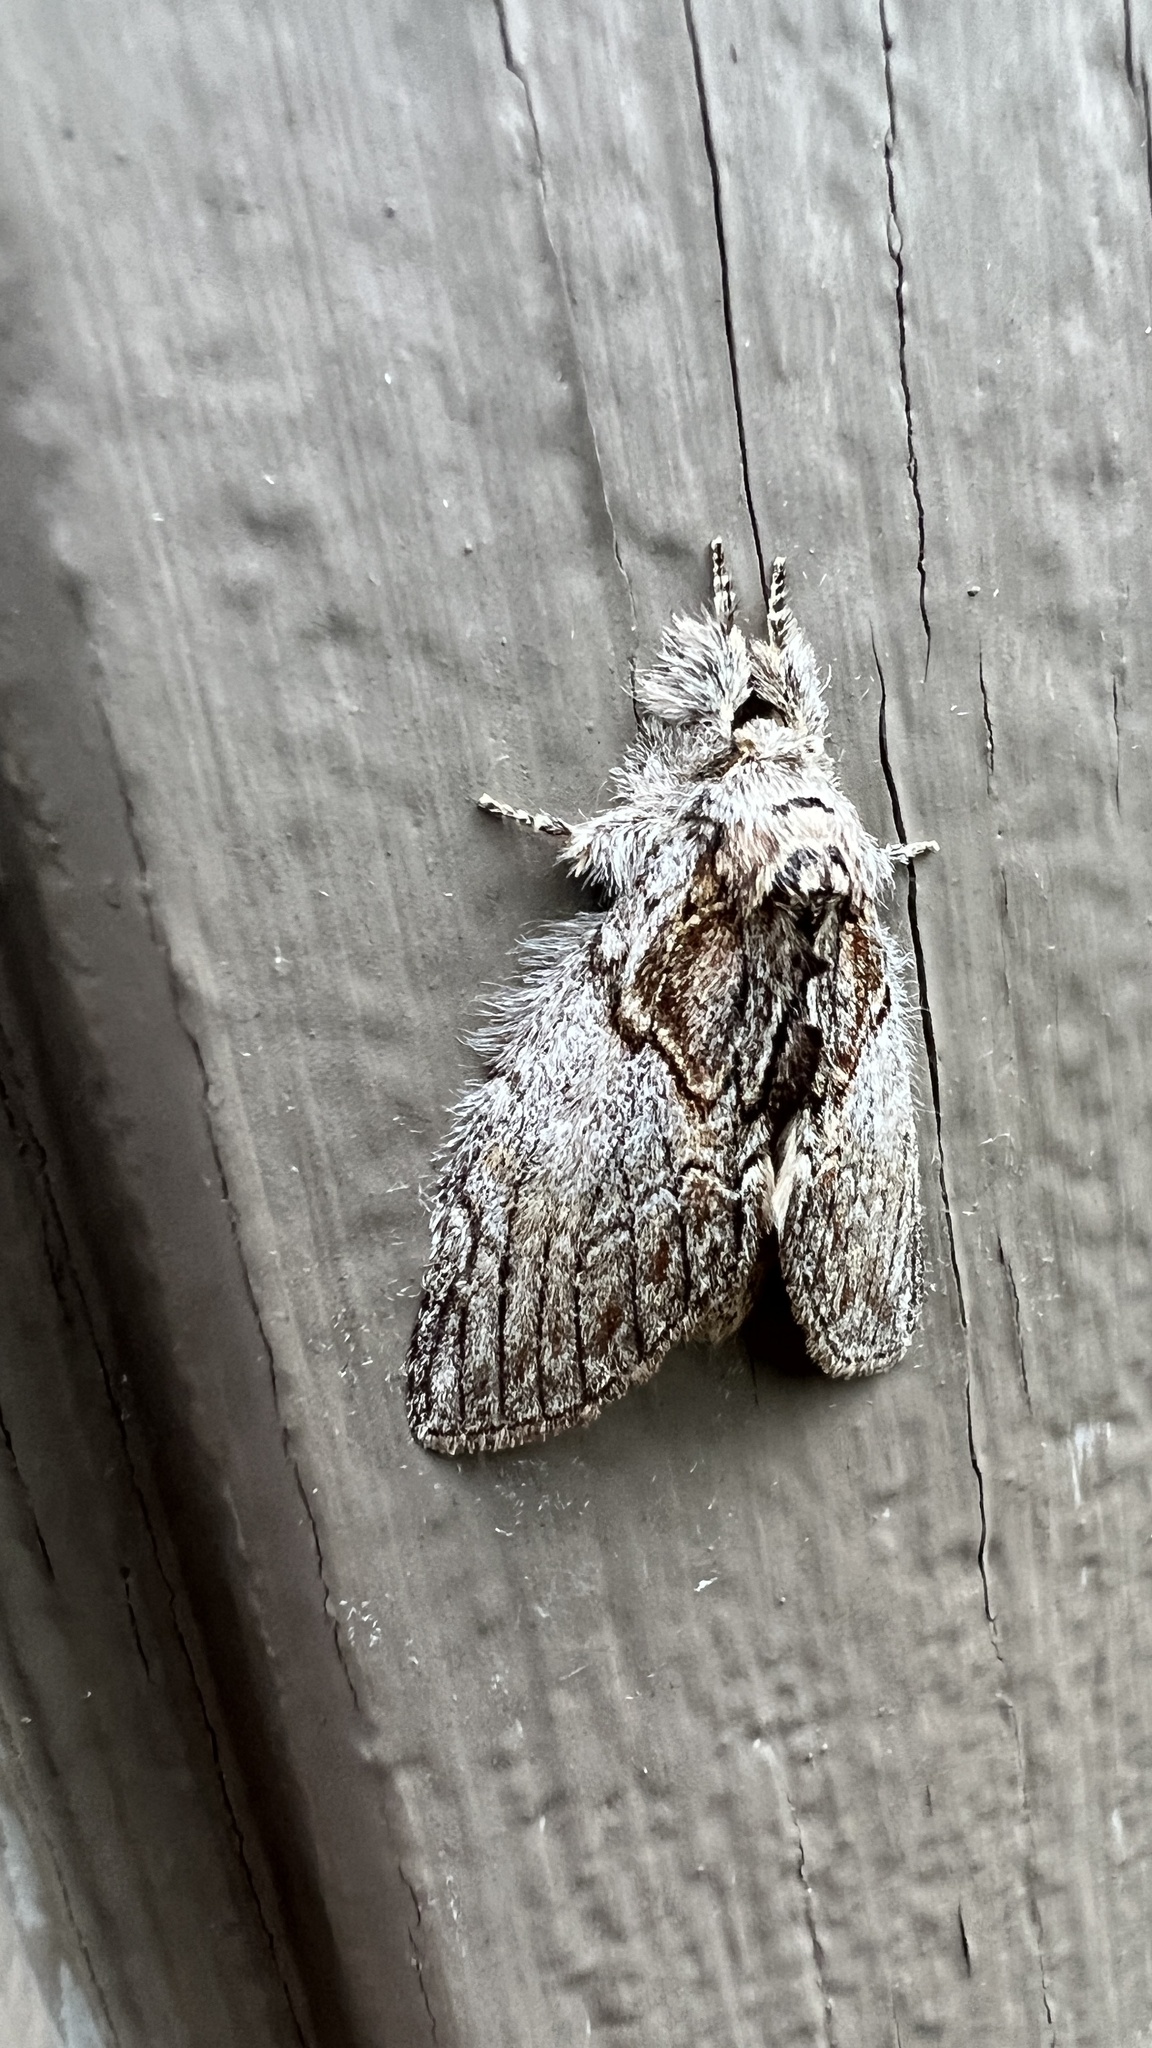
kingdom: Animalia
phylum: Arthropoda
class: Insecta
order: Lepidoptera
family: Notodontidae
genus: Peridea
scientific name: Peridea basitriens
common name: Oval-based prominent
